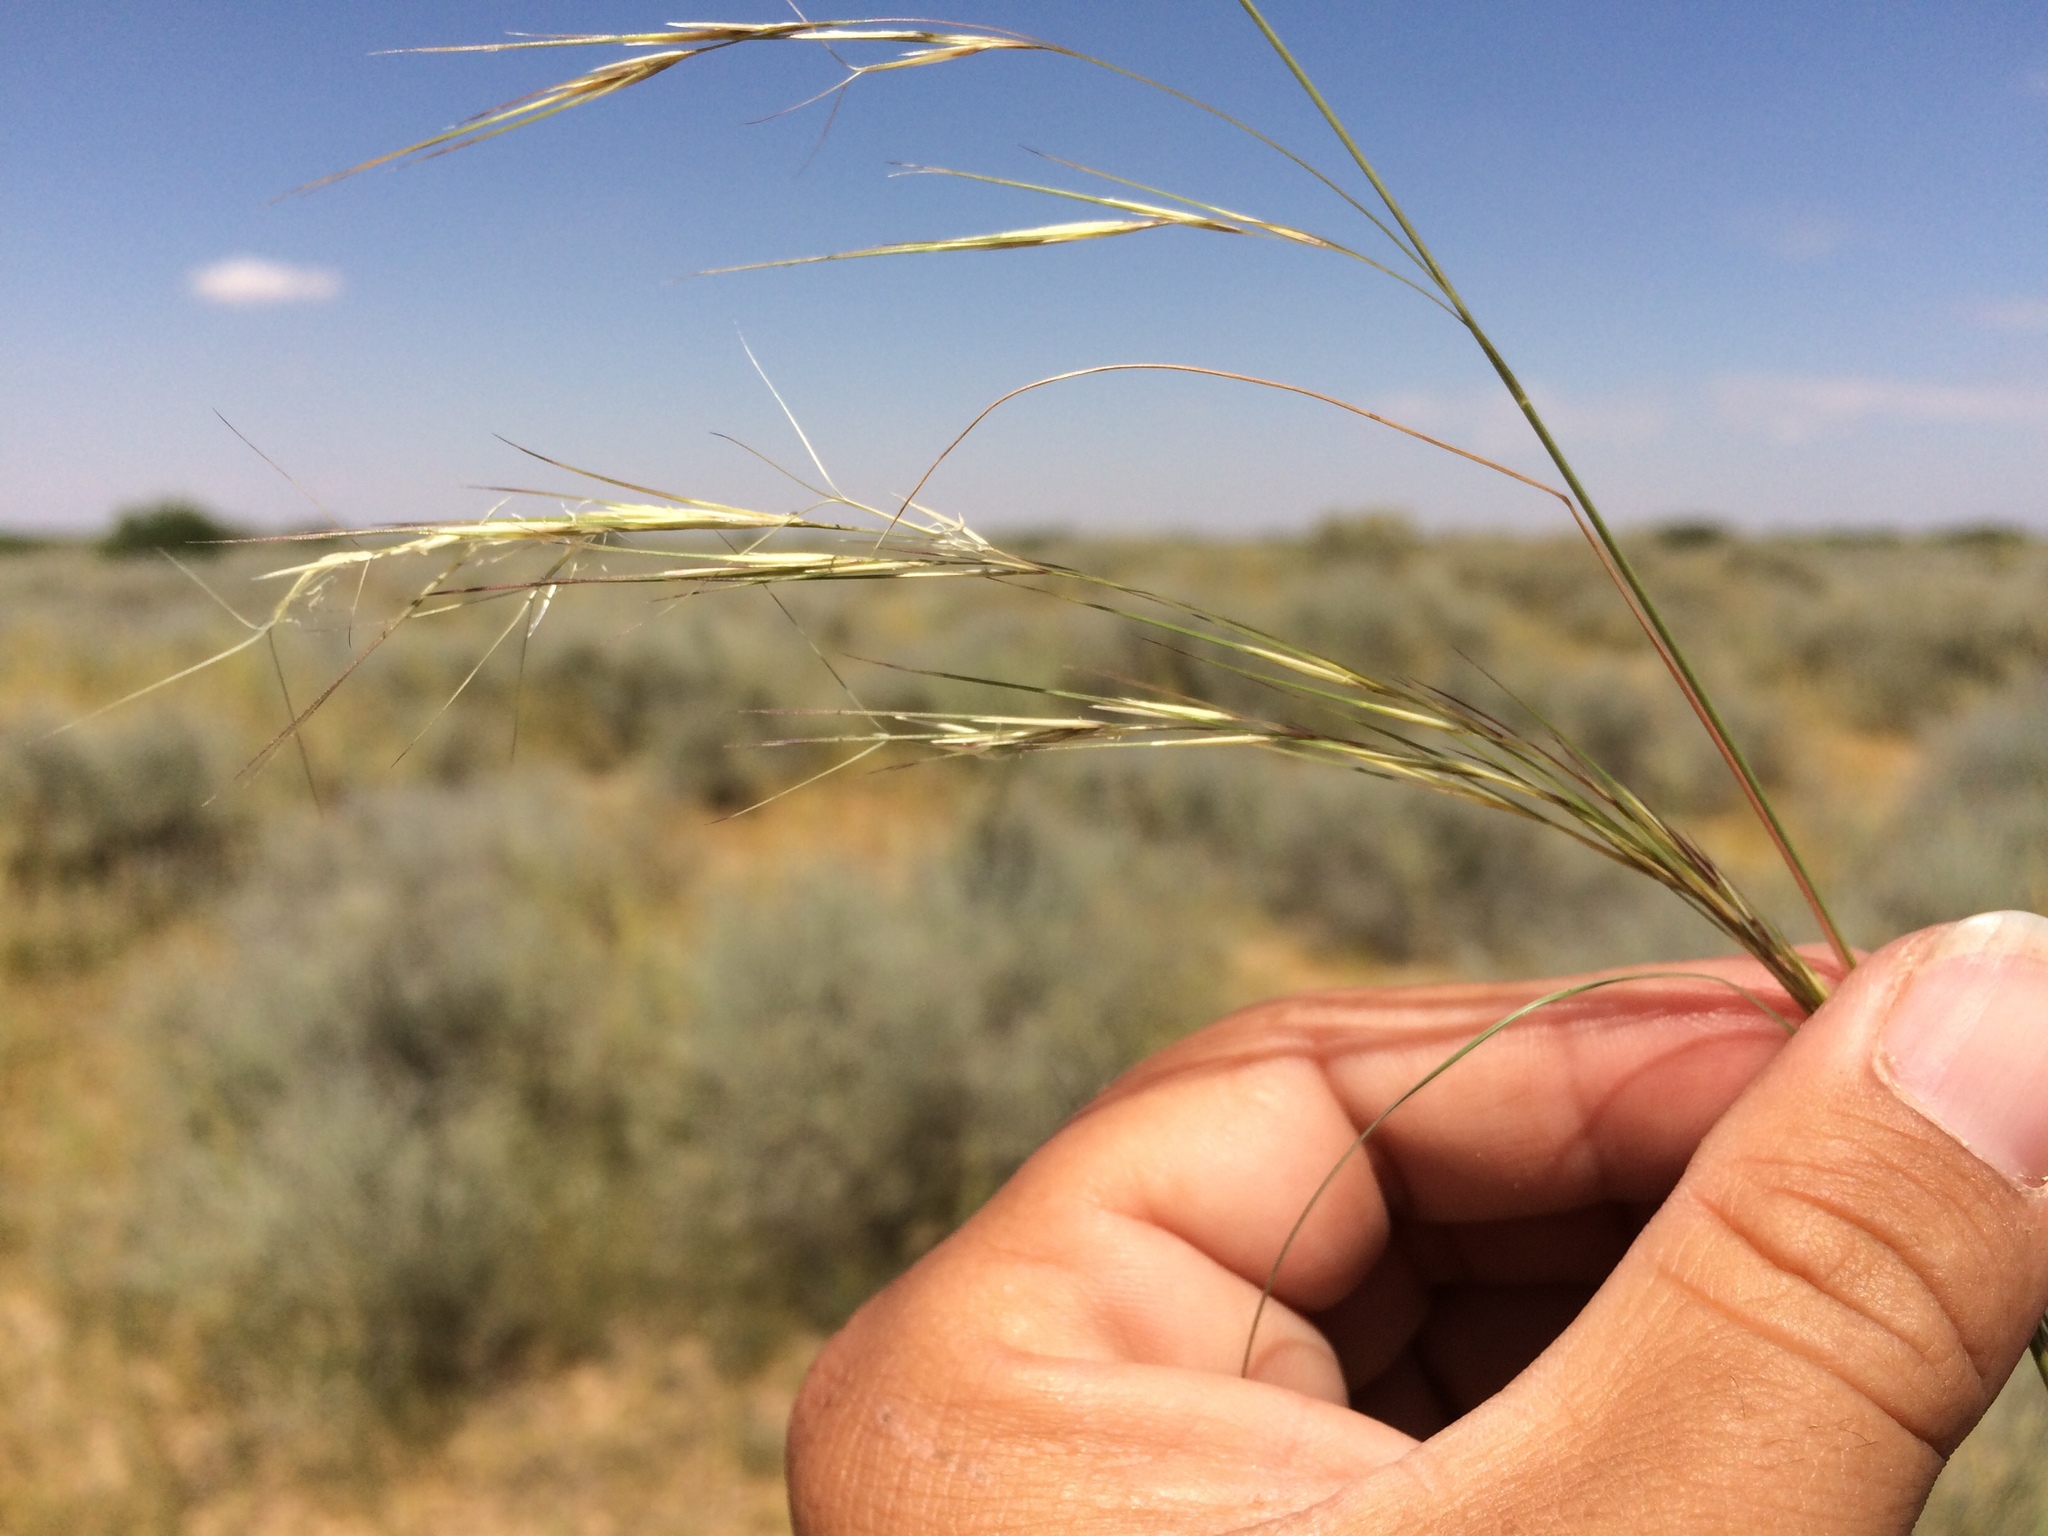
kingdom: Plantae
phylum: Tracheophyta
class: Liliopsida
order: Poales
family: Poaceae
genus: Aristida
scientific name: Aristida adscensionis
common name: Sixweeks threeawn
